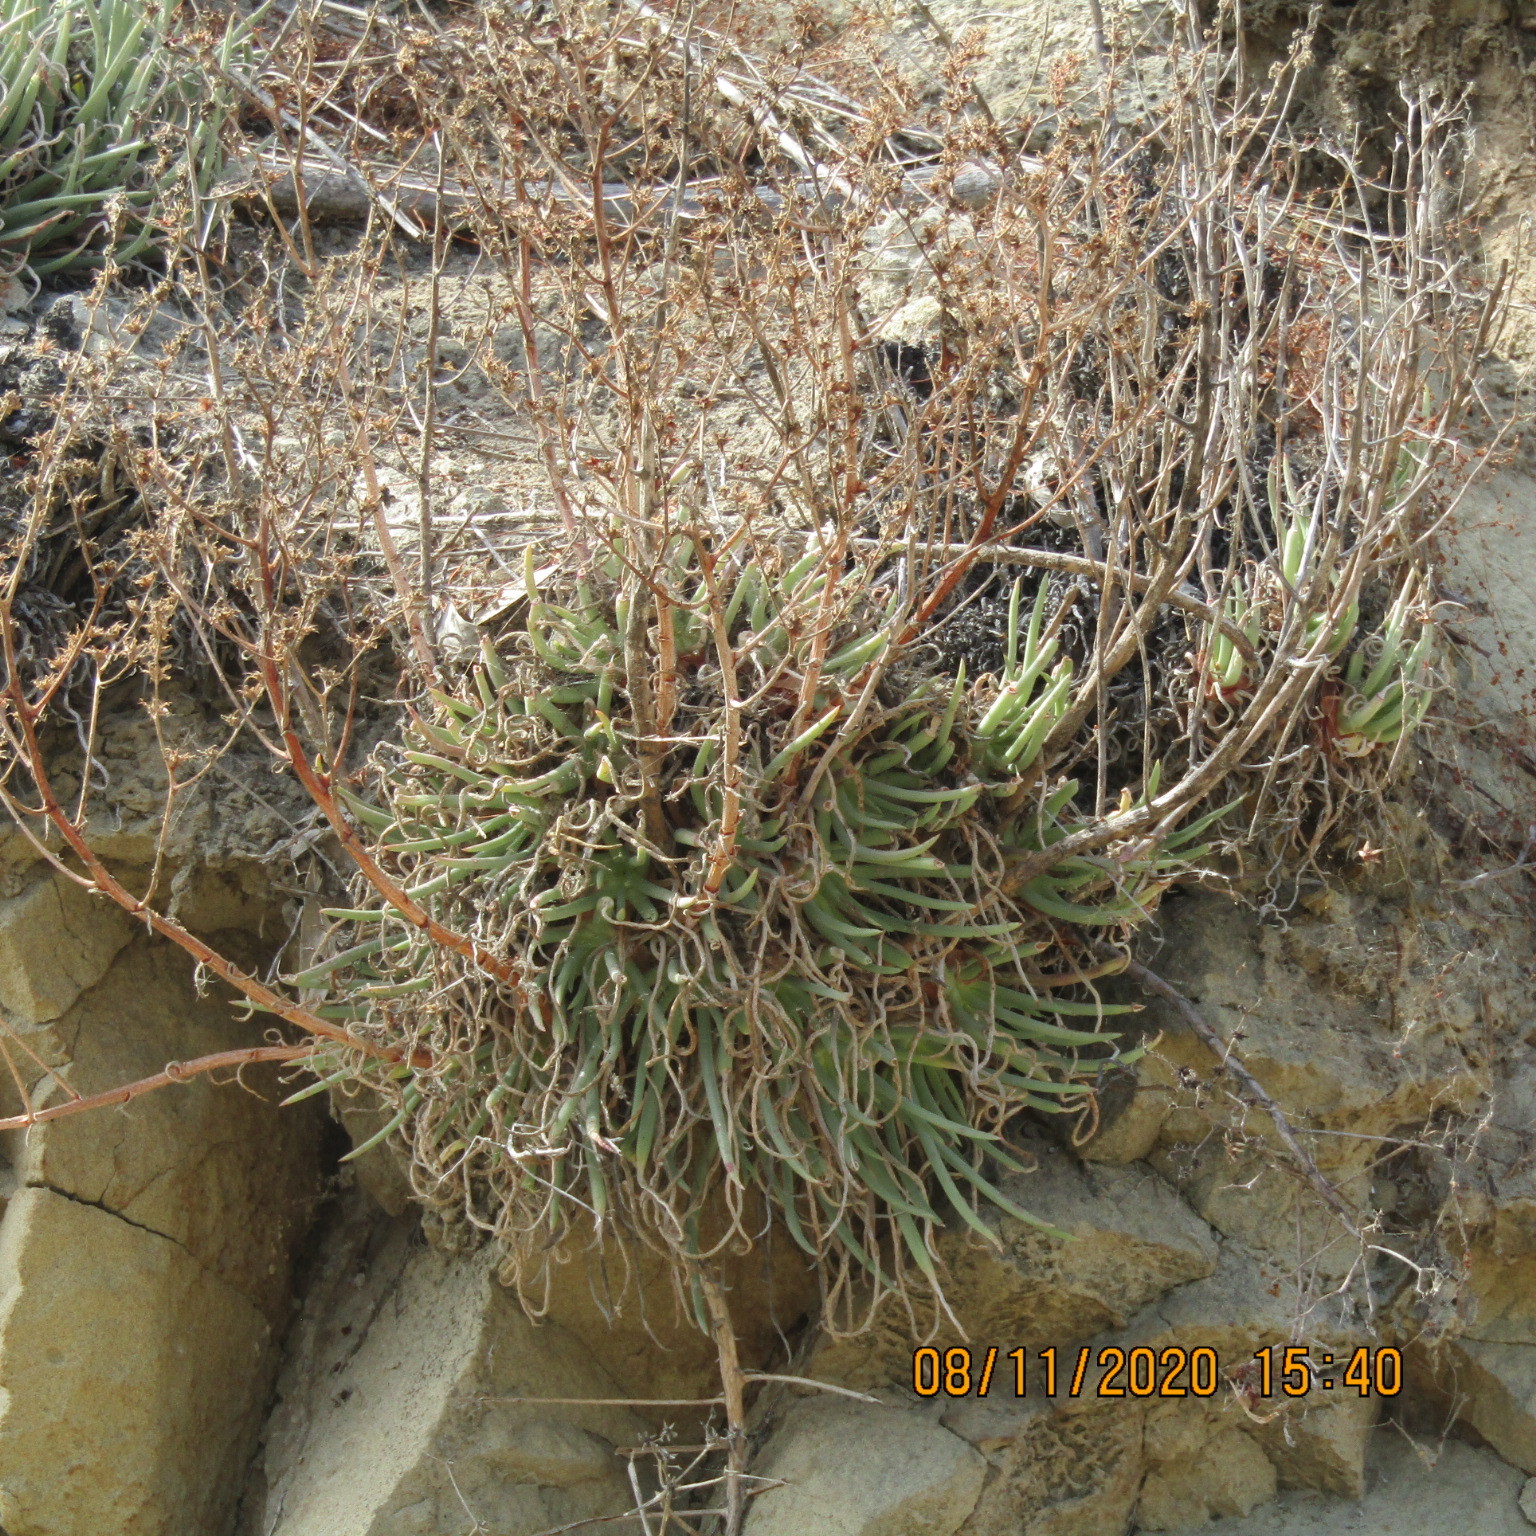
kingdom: Plantae
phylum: Tracheophyta
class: Magnoliopsida
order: Saxifragales
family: Crassulaceae
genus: Dudleya
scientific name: Dudleya edulis
